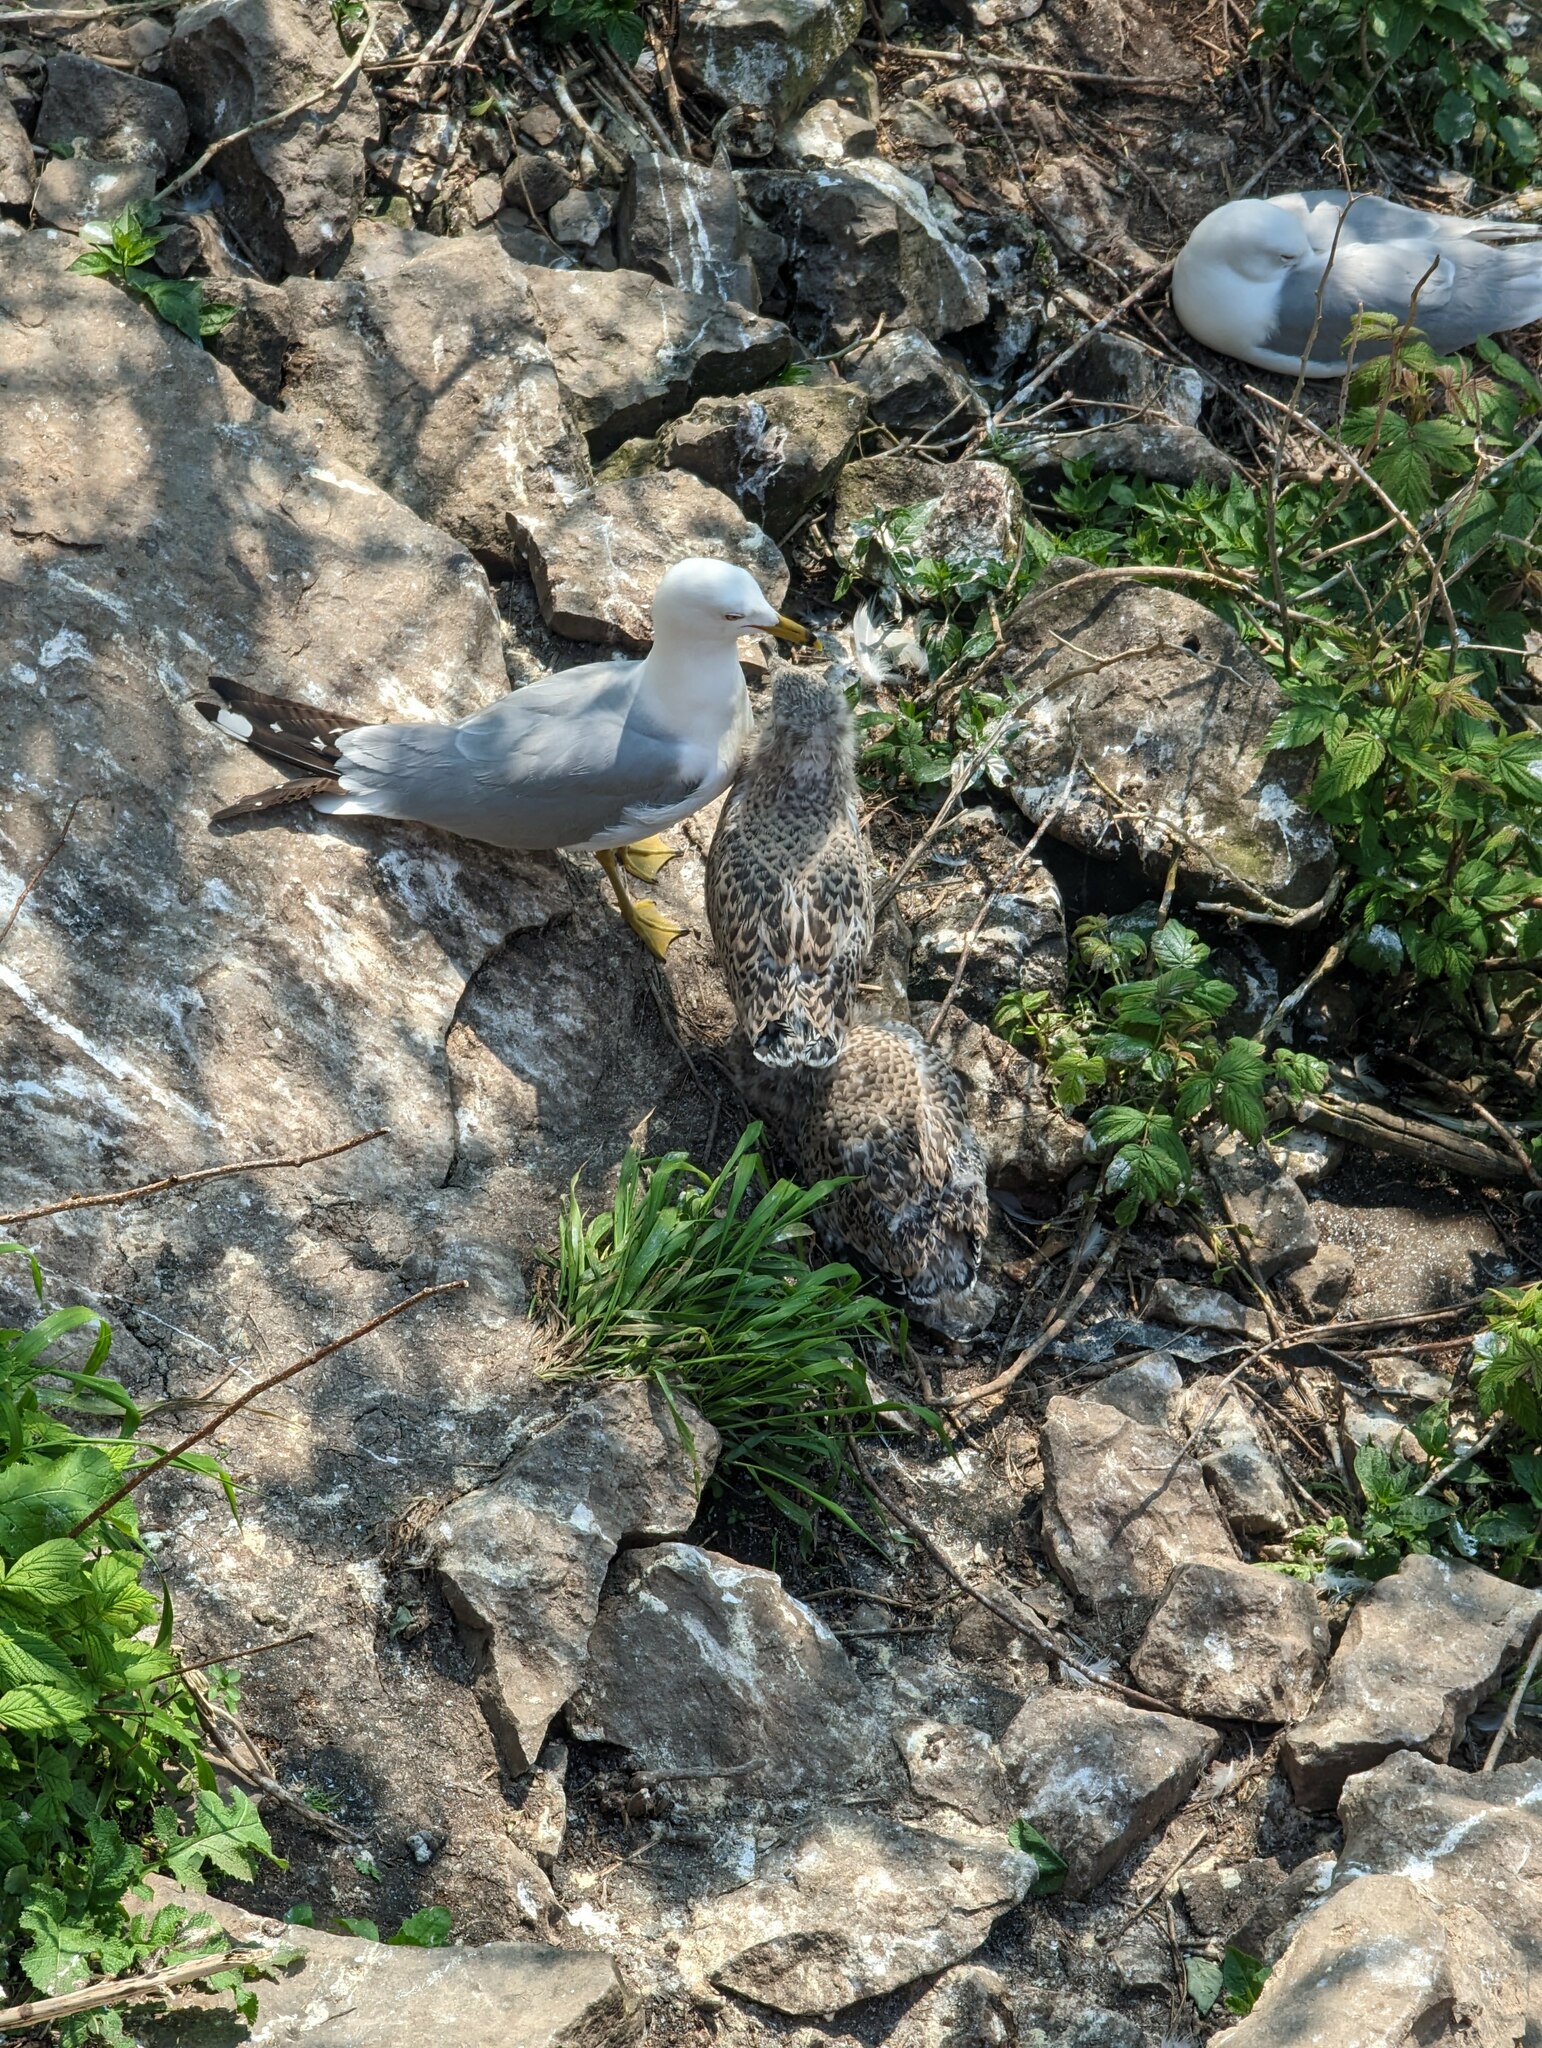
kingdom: Animalia
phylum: Chordata
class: Aves
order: Charadriiformes
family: Laridae
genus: Larus
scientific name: Larus delawarensis
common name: Ring-billed gull
